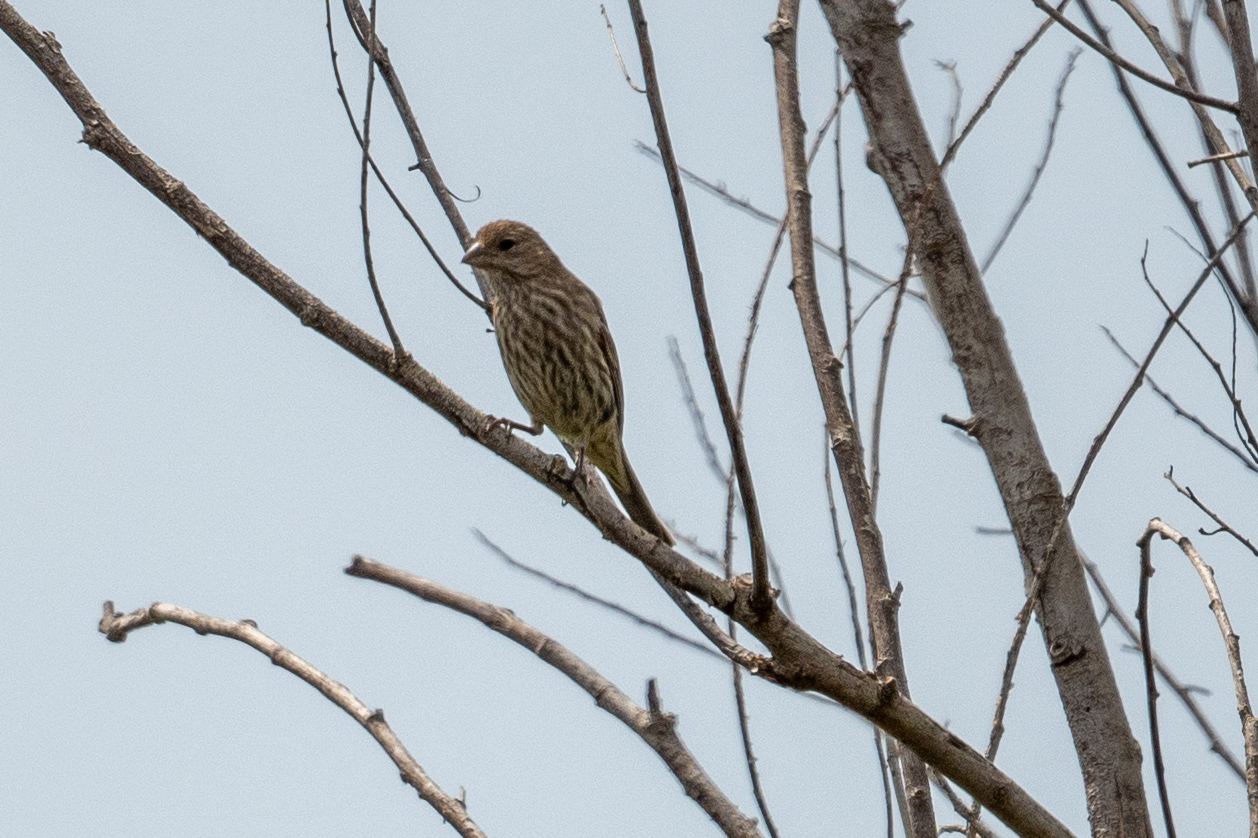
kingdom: Animalia
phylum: Chordata
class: Aves
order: Passeriformes
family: Fringillidae
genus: Haemorhous
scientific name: Haemorhous mexicanus
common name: House finch
